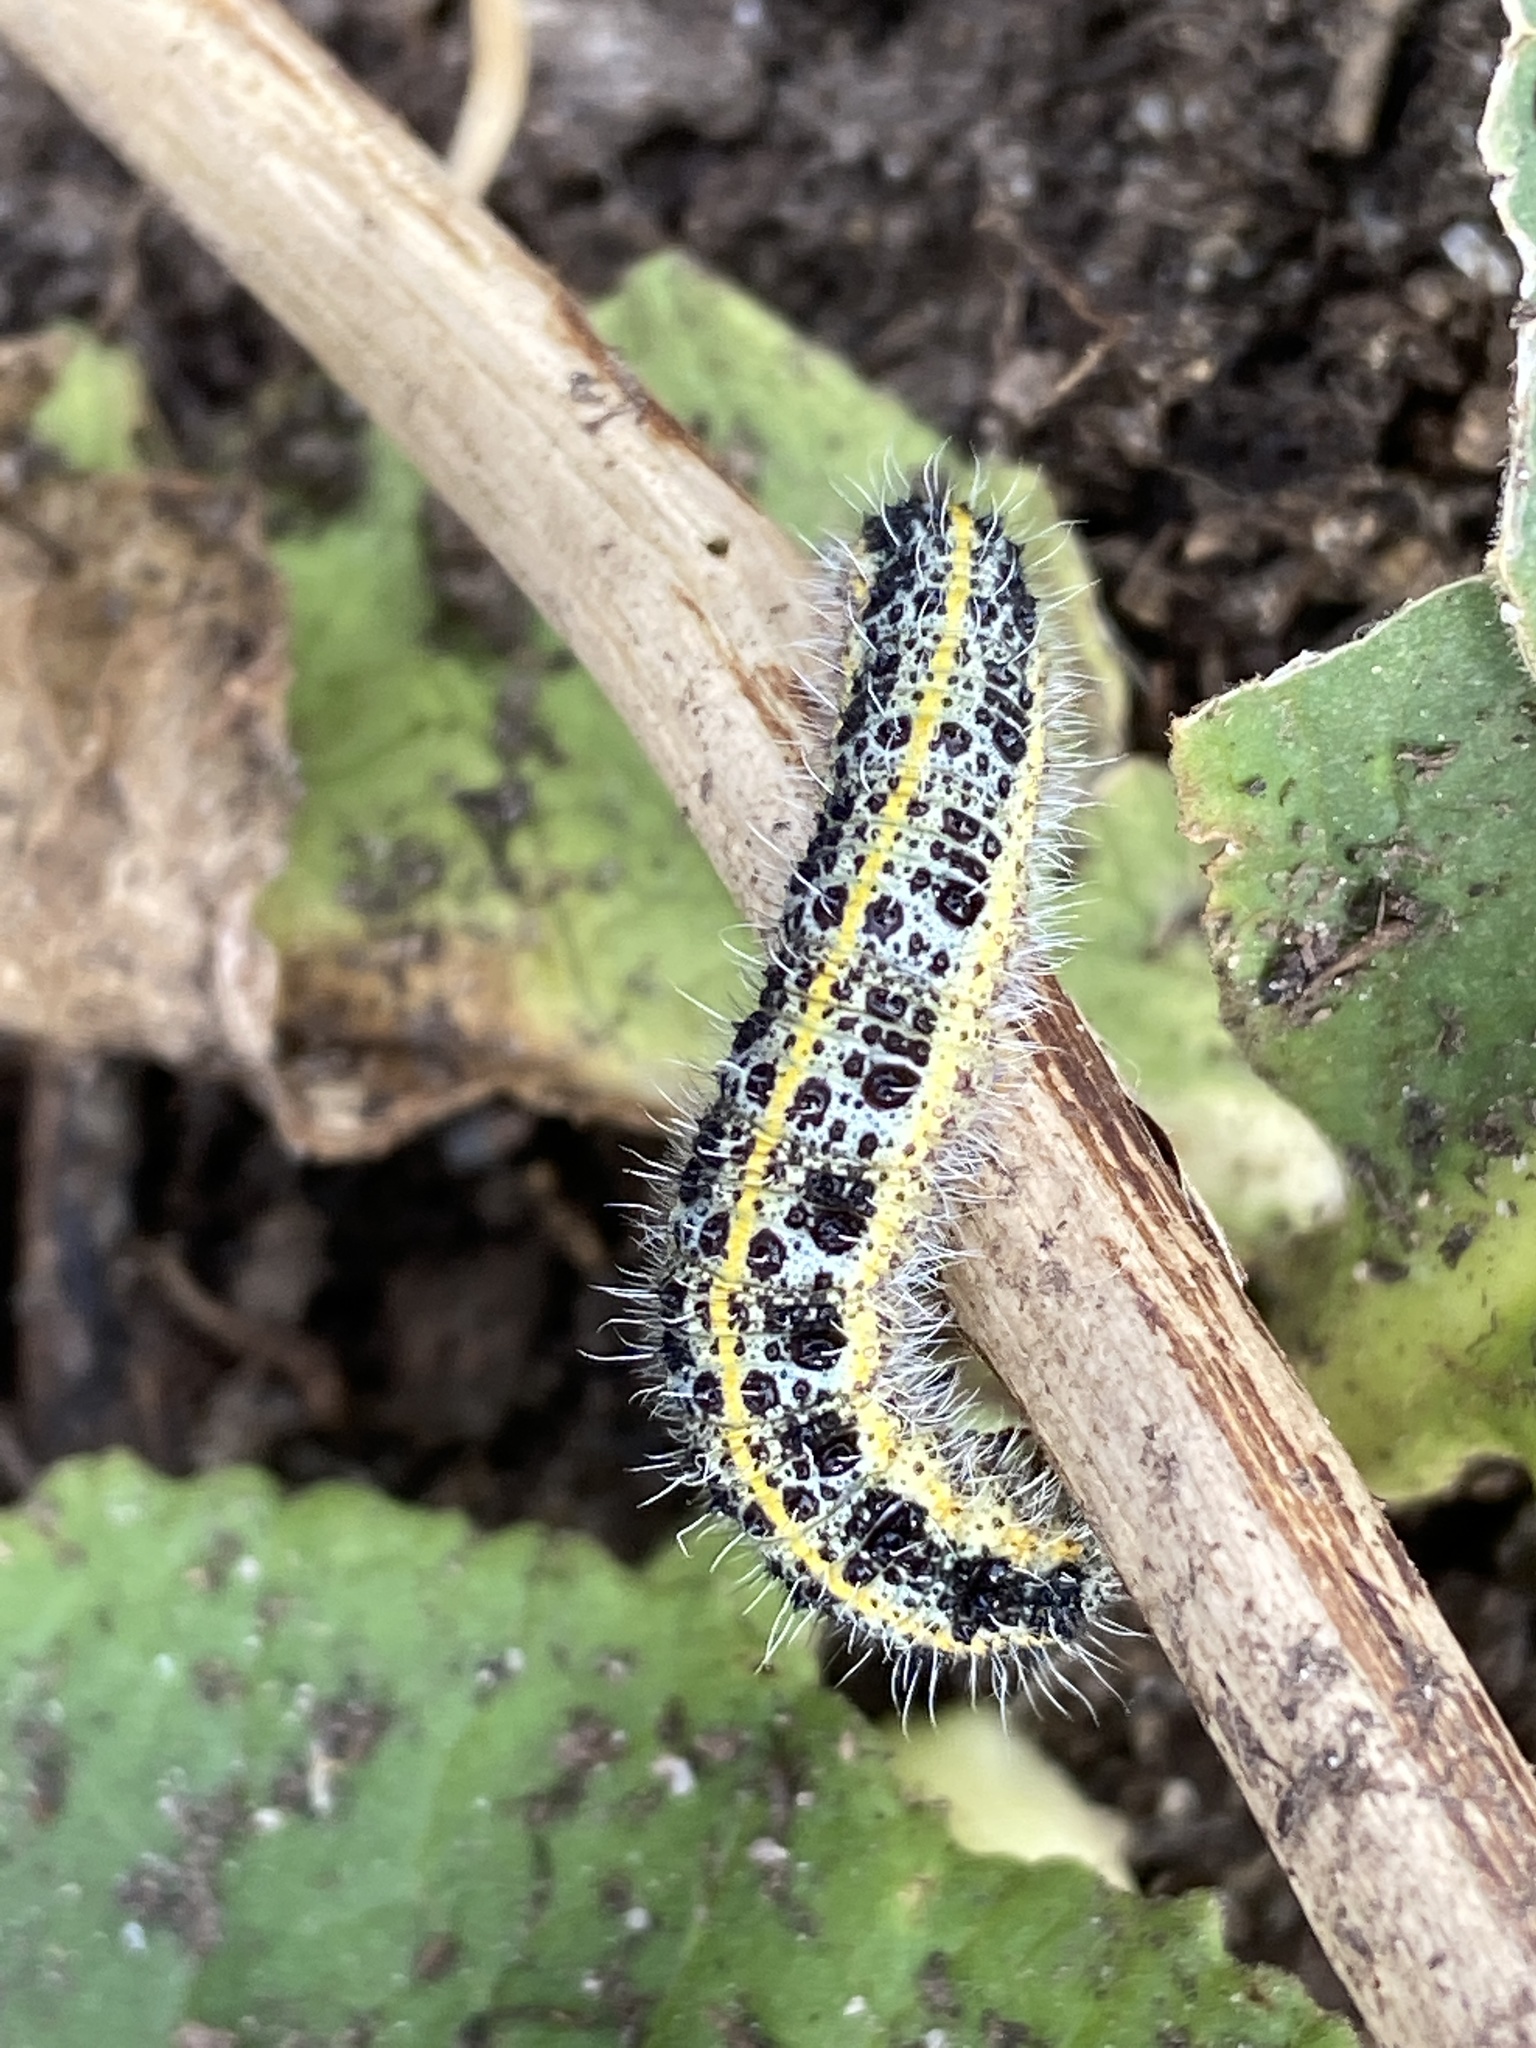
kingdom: Animalia
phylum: Arthropoda
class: Insecta
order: Lepidoptera
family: Pieridae
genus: Pieris
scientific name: Pieris brassicae
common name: Large white
